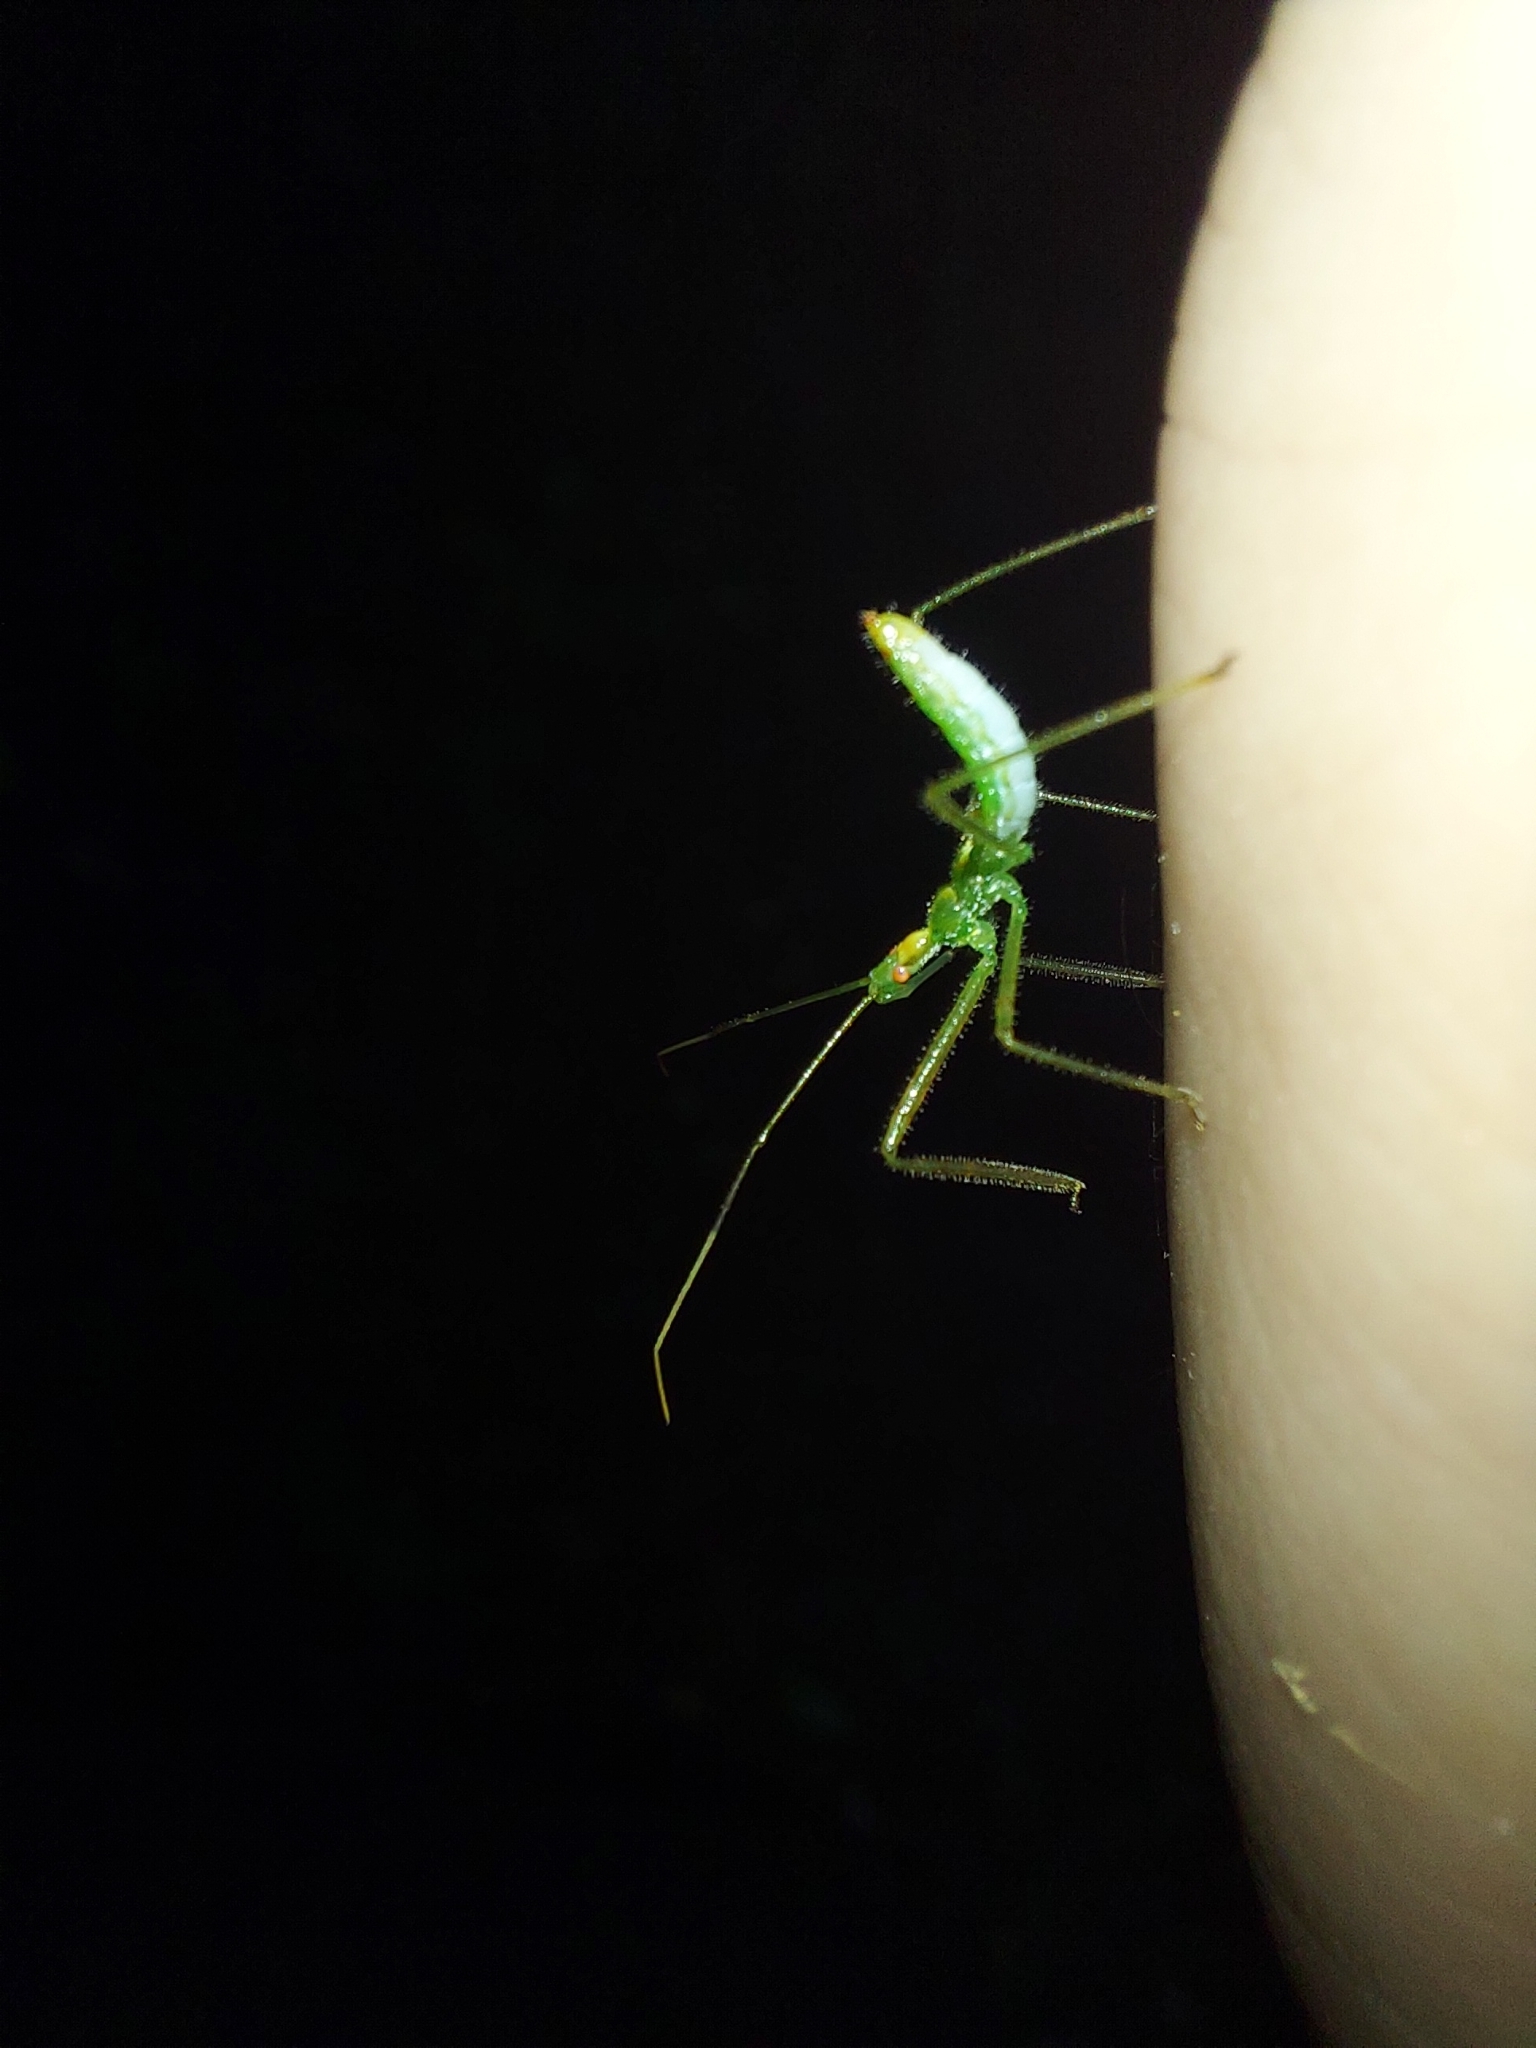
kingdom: Animalia
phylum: Arthropoda
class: Insecta
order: Hemiptera
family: Reduviidae
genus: Zelus
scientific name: Zelus luridus
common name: Pale green assassin bug
